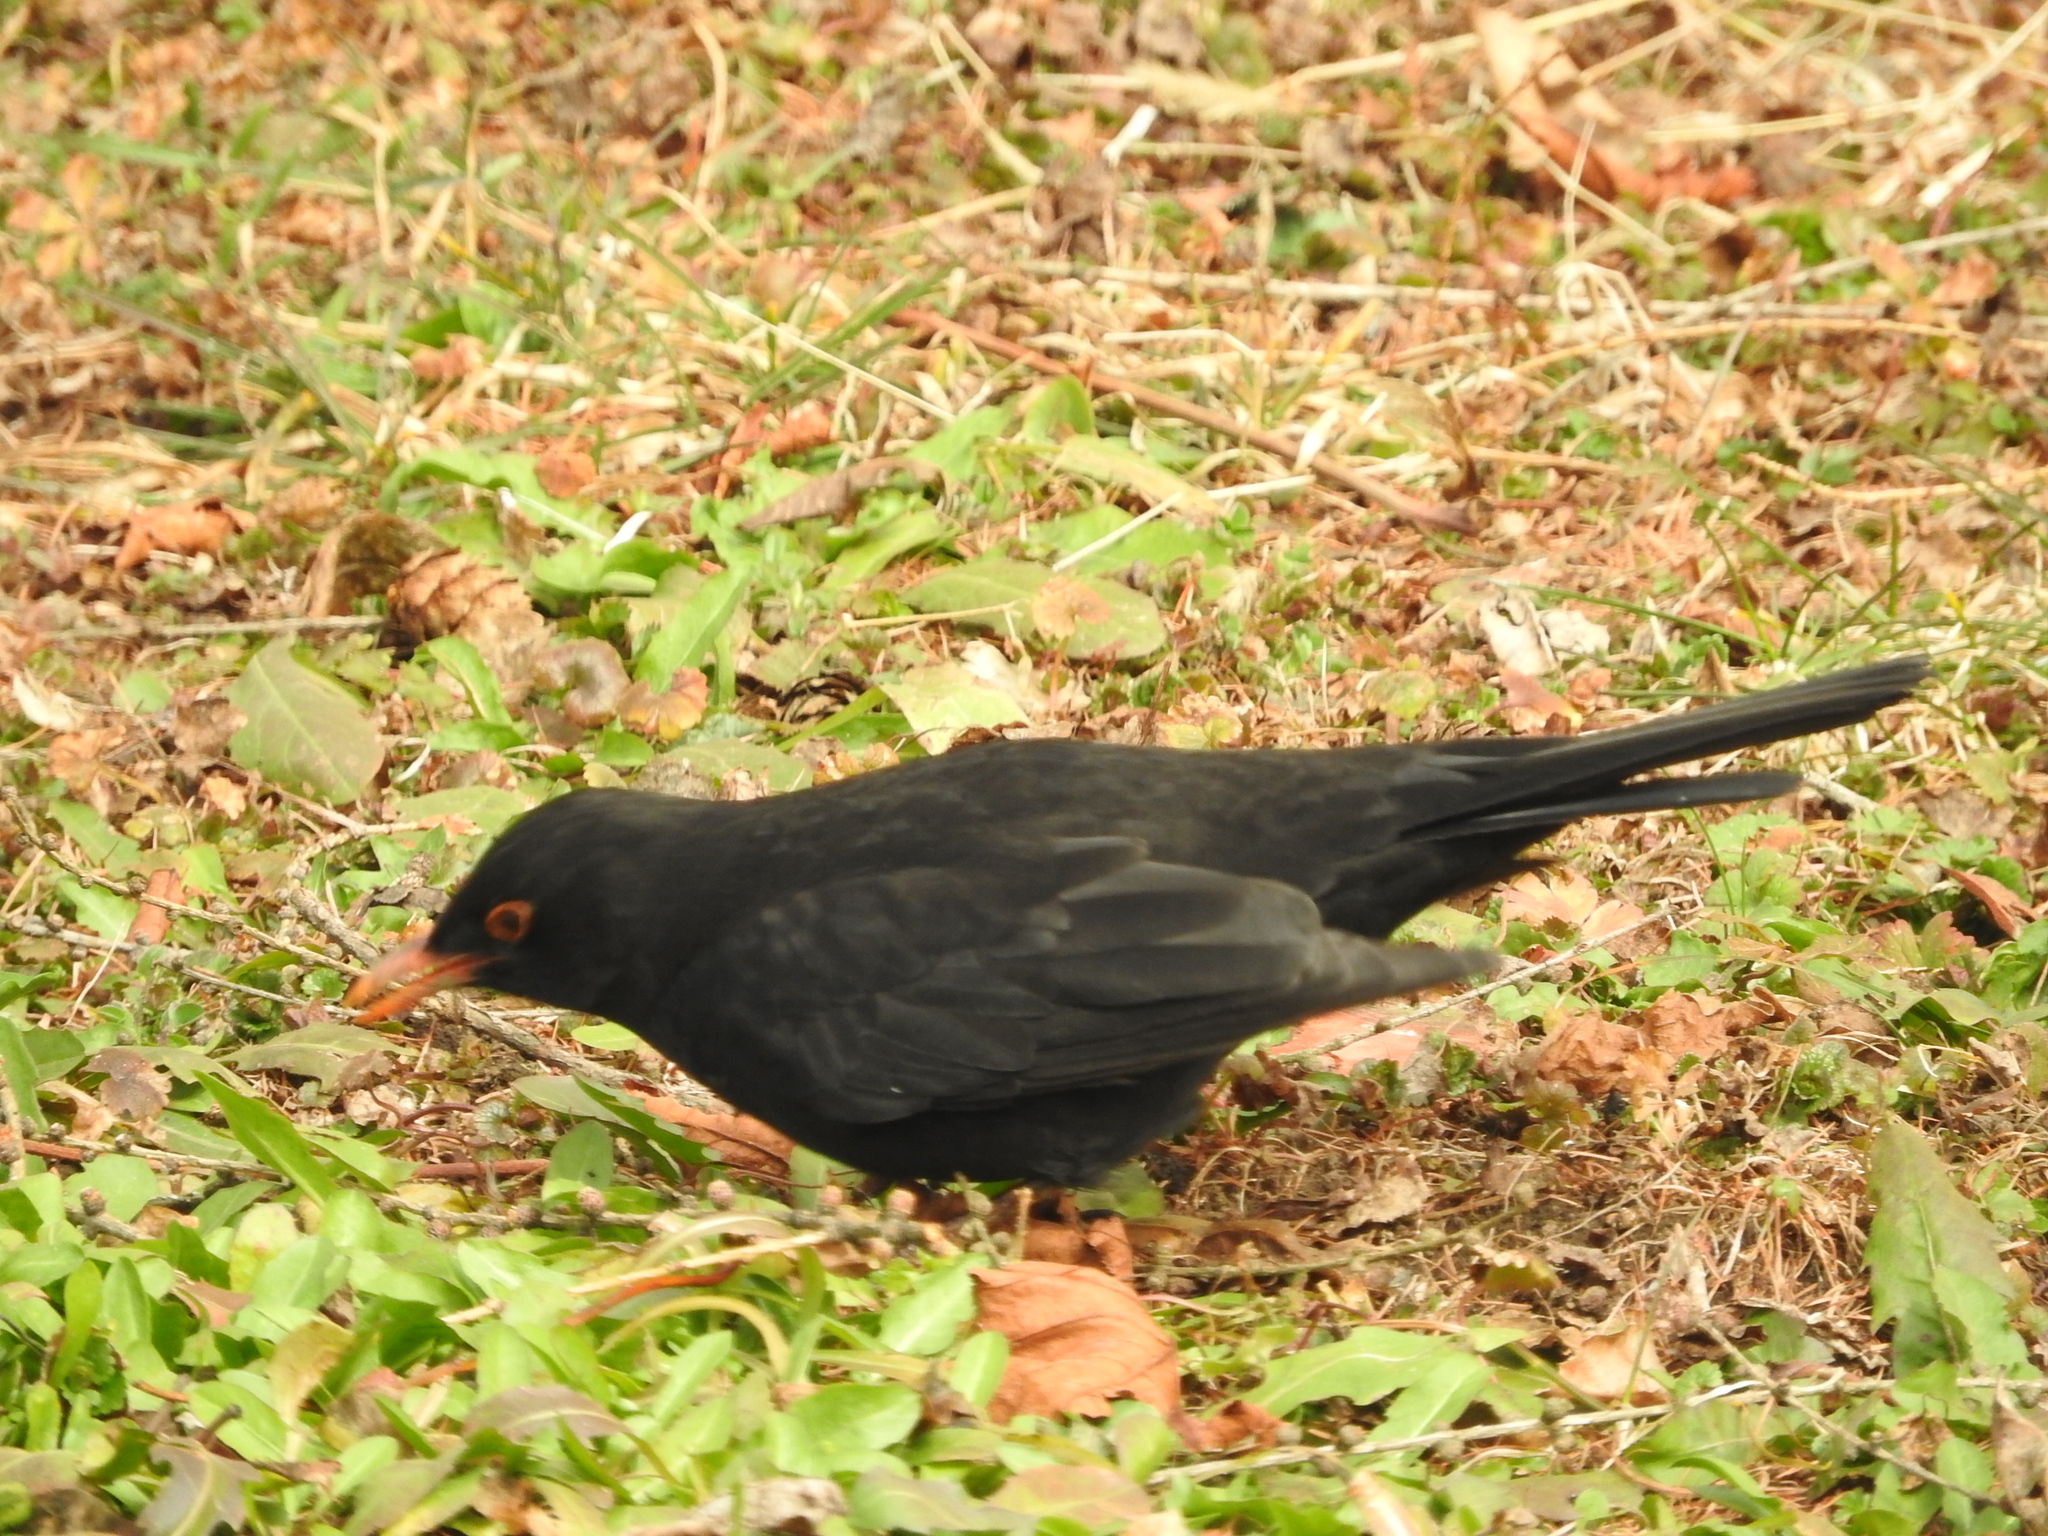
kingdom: Animalia
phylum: Chordata
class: Aves
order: Passeriformes
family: Turdidae
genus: Turdus
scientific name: Turdus merula
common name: Common blackbird
